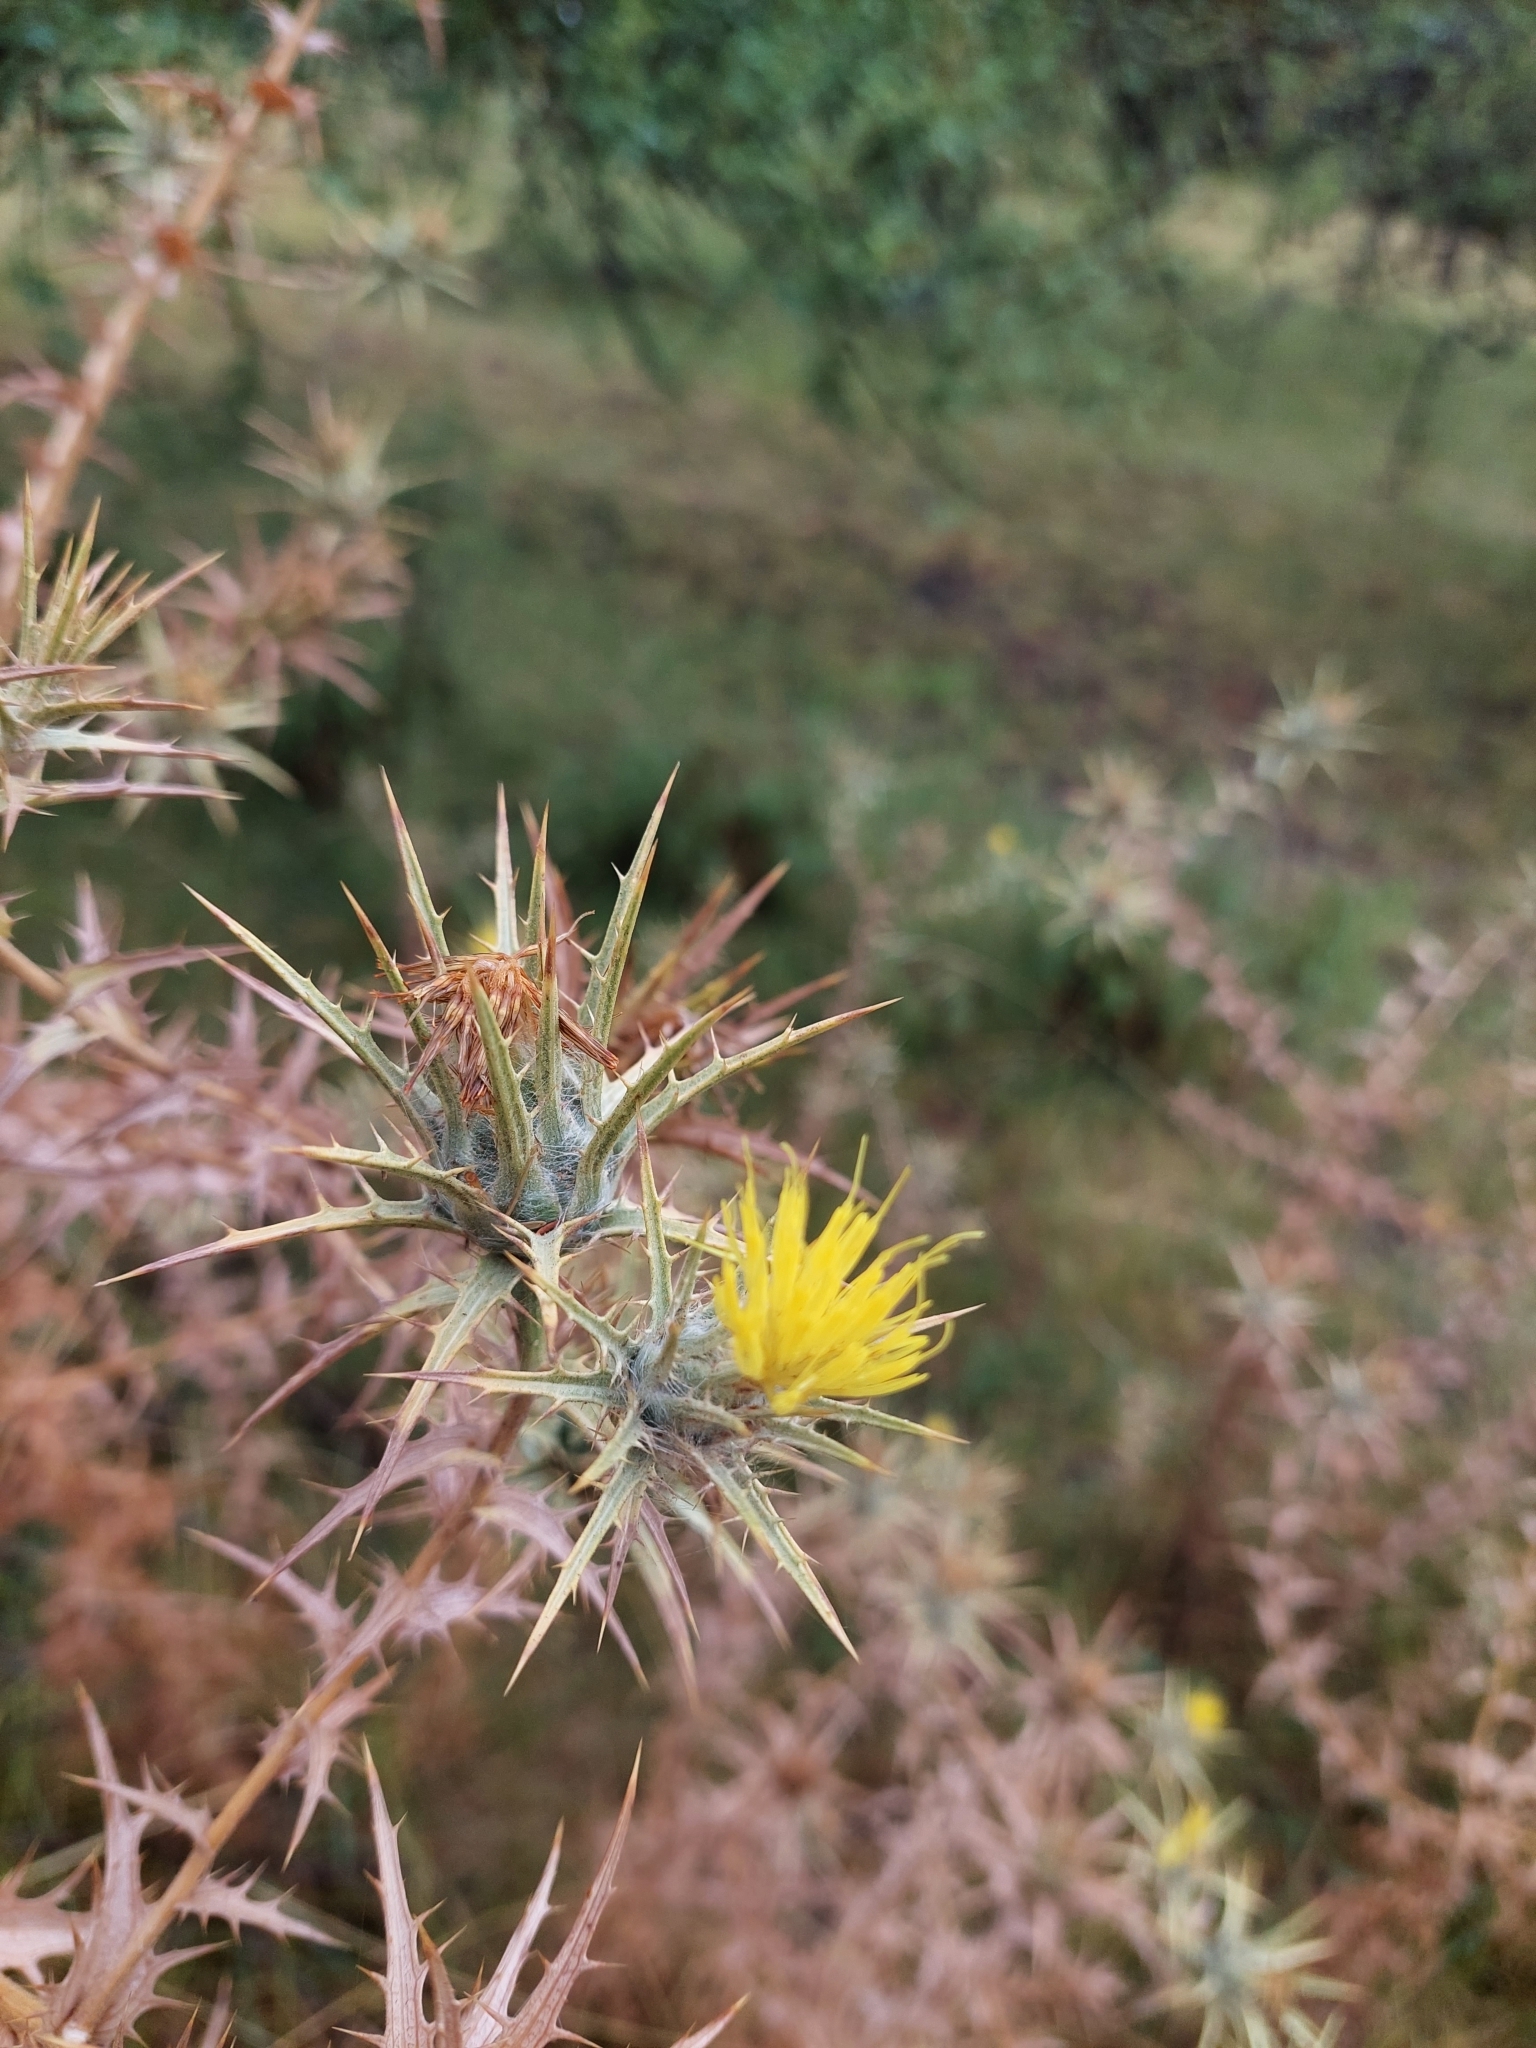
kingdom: Plantae
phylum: Tracheophyta
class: Magnoliopsida
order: Asterales
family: Asteraceae
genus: Carthamus
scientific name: Carthamus lanatus
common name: Downy safflower
